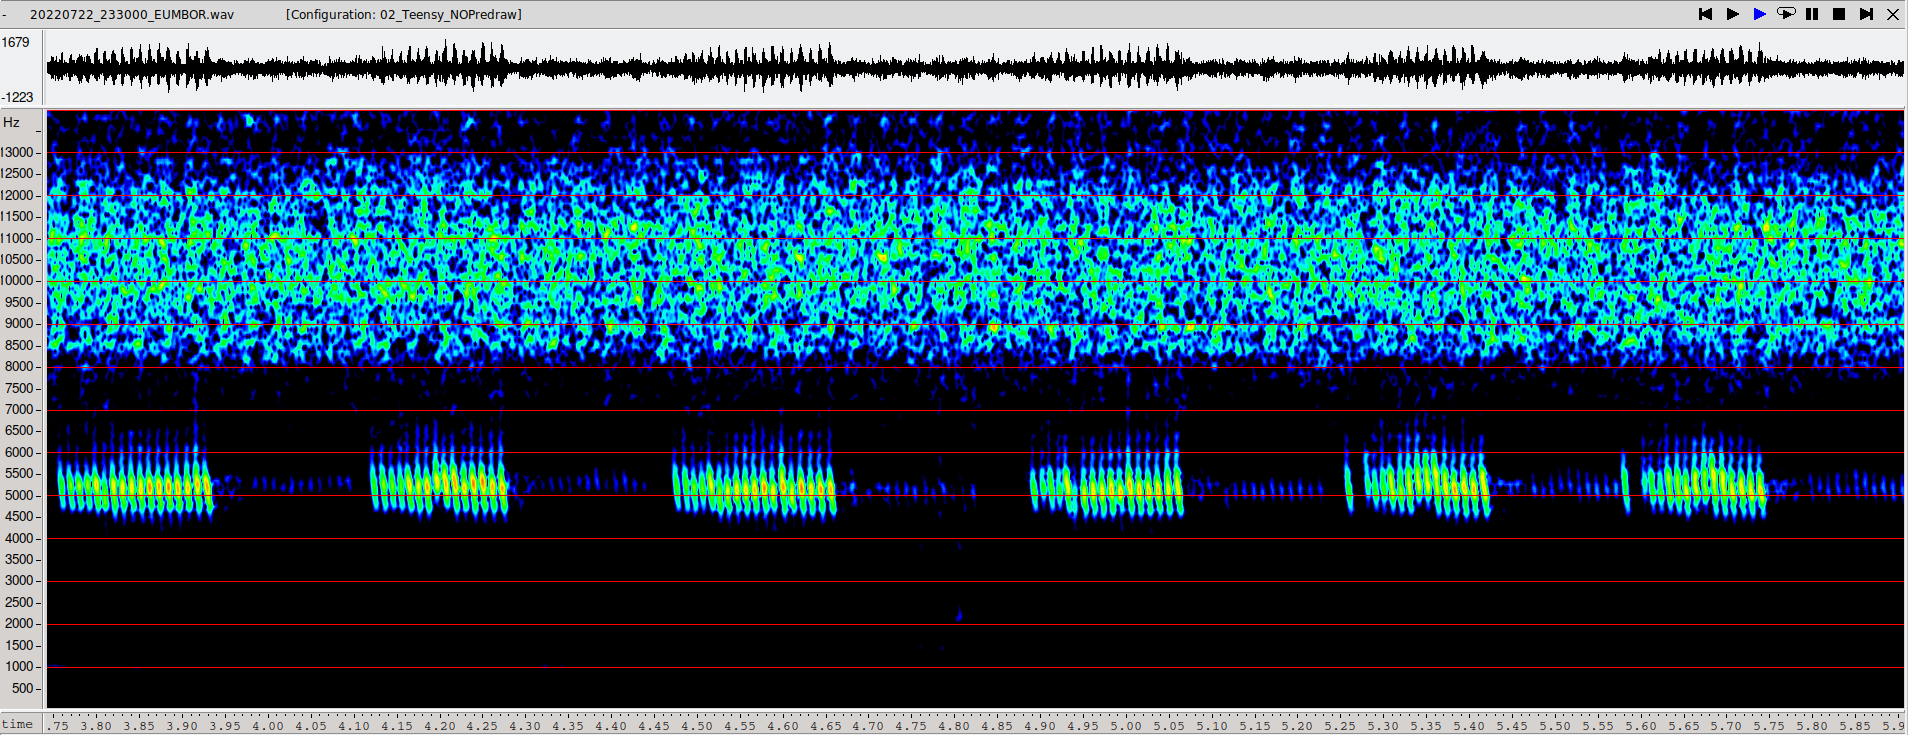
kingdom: Animalia
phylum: Arthropoda
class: Insecta
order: Orthoptera
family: Gryllidae
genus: Eumodicogryllus
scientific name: Eumodicogryllus bordigalensis
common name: Bordeaux cricket
